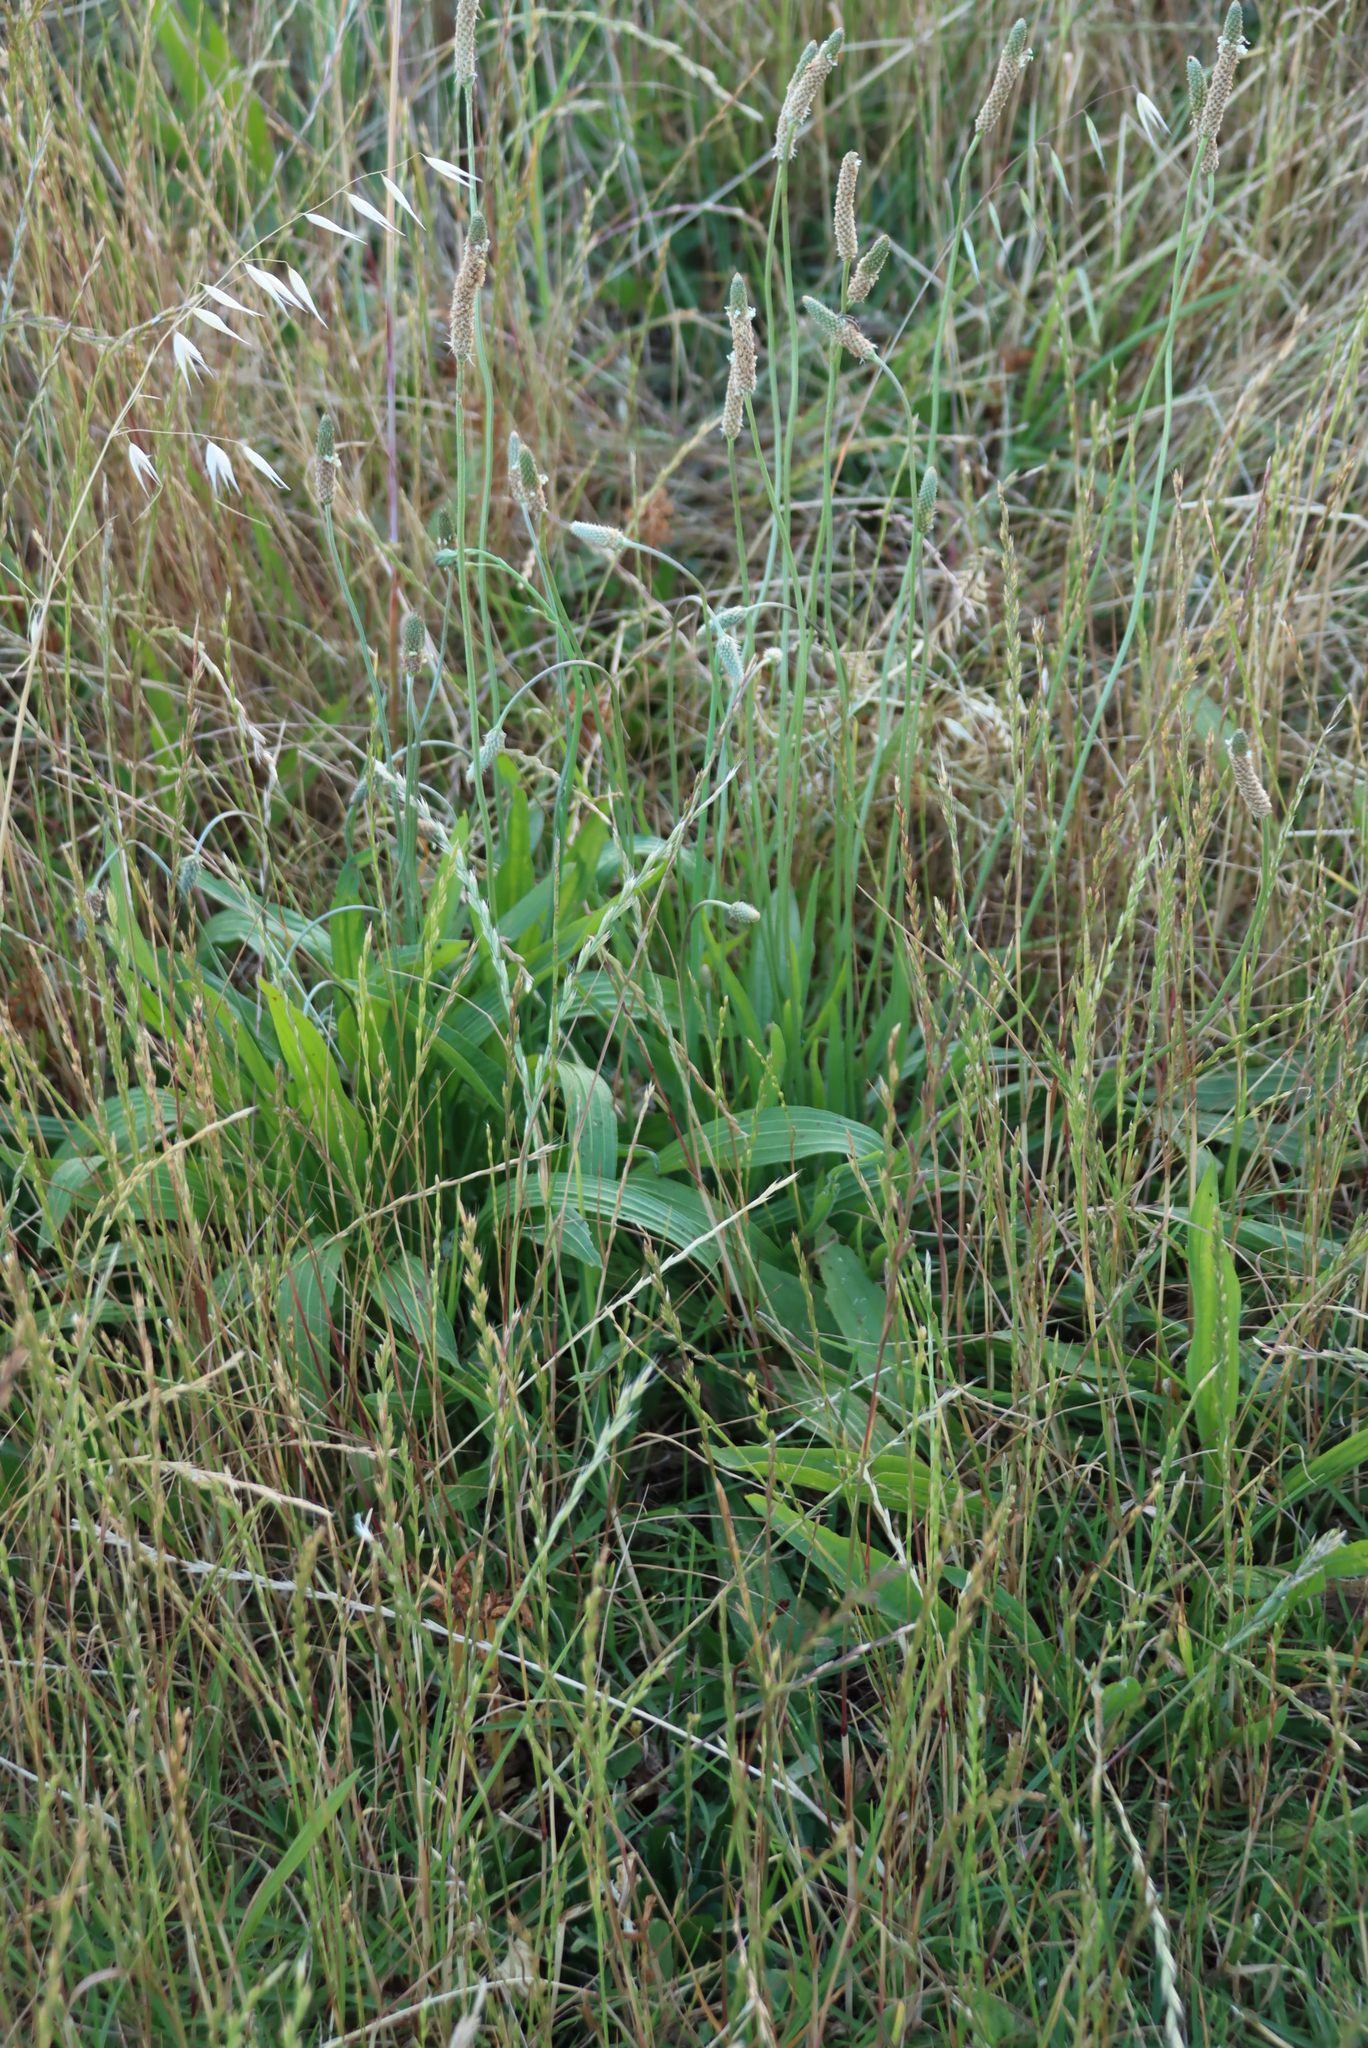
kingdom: Plantae
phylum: Tracheophyta
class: Magnoliopsida
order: Lamiales
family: Plantaginaceae
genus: Plantago
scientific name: Plantago lanceolata
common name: Ribwort plantain
